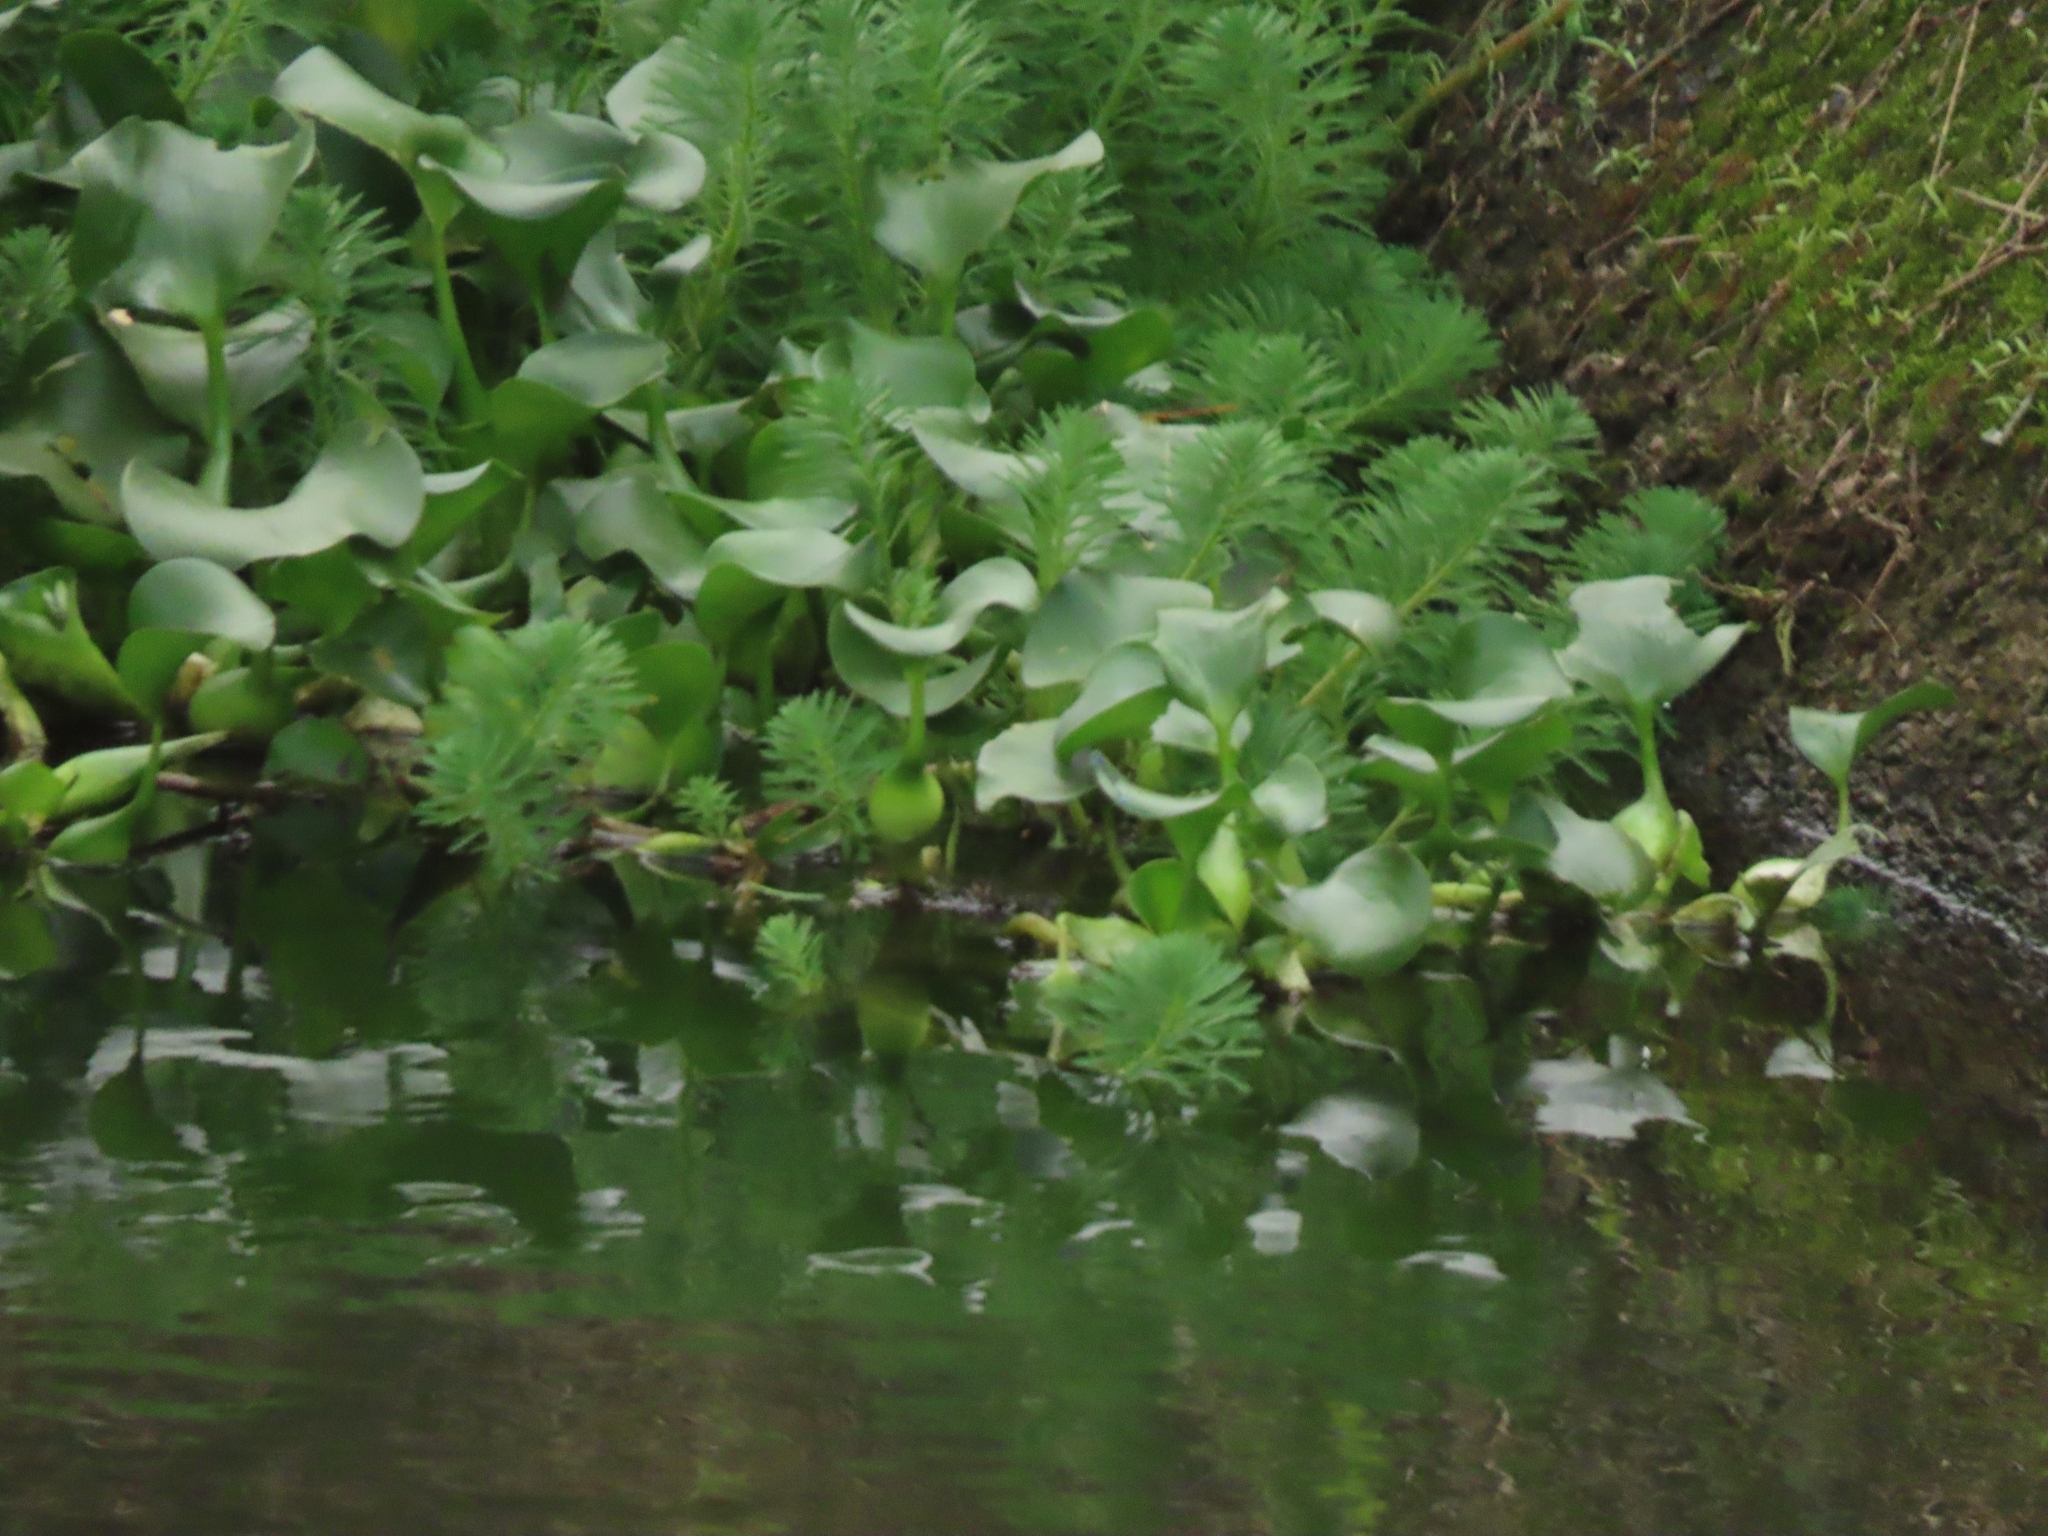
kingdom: Plantae
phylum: Tracheophyta
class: Liliopsida
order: Commelinales
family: Pontederiaceae
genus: Pontederia
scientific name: Pontederia crassipes
